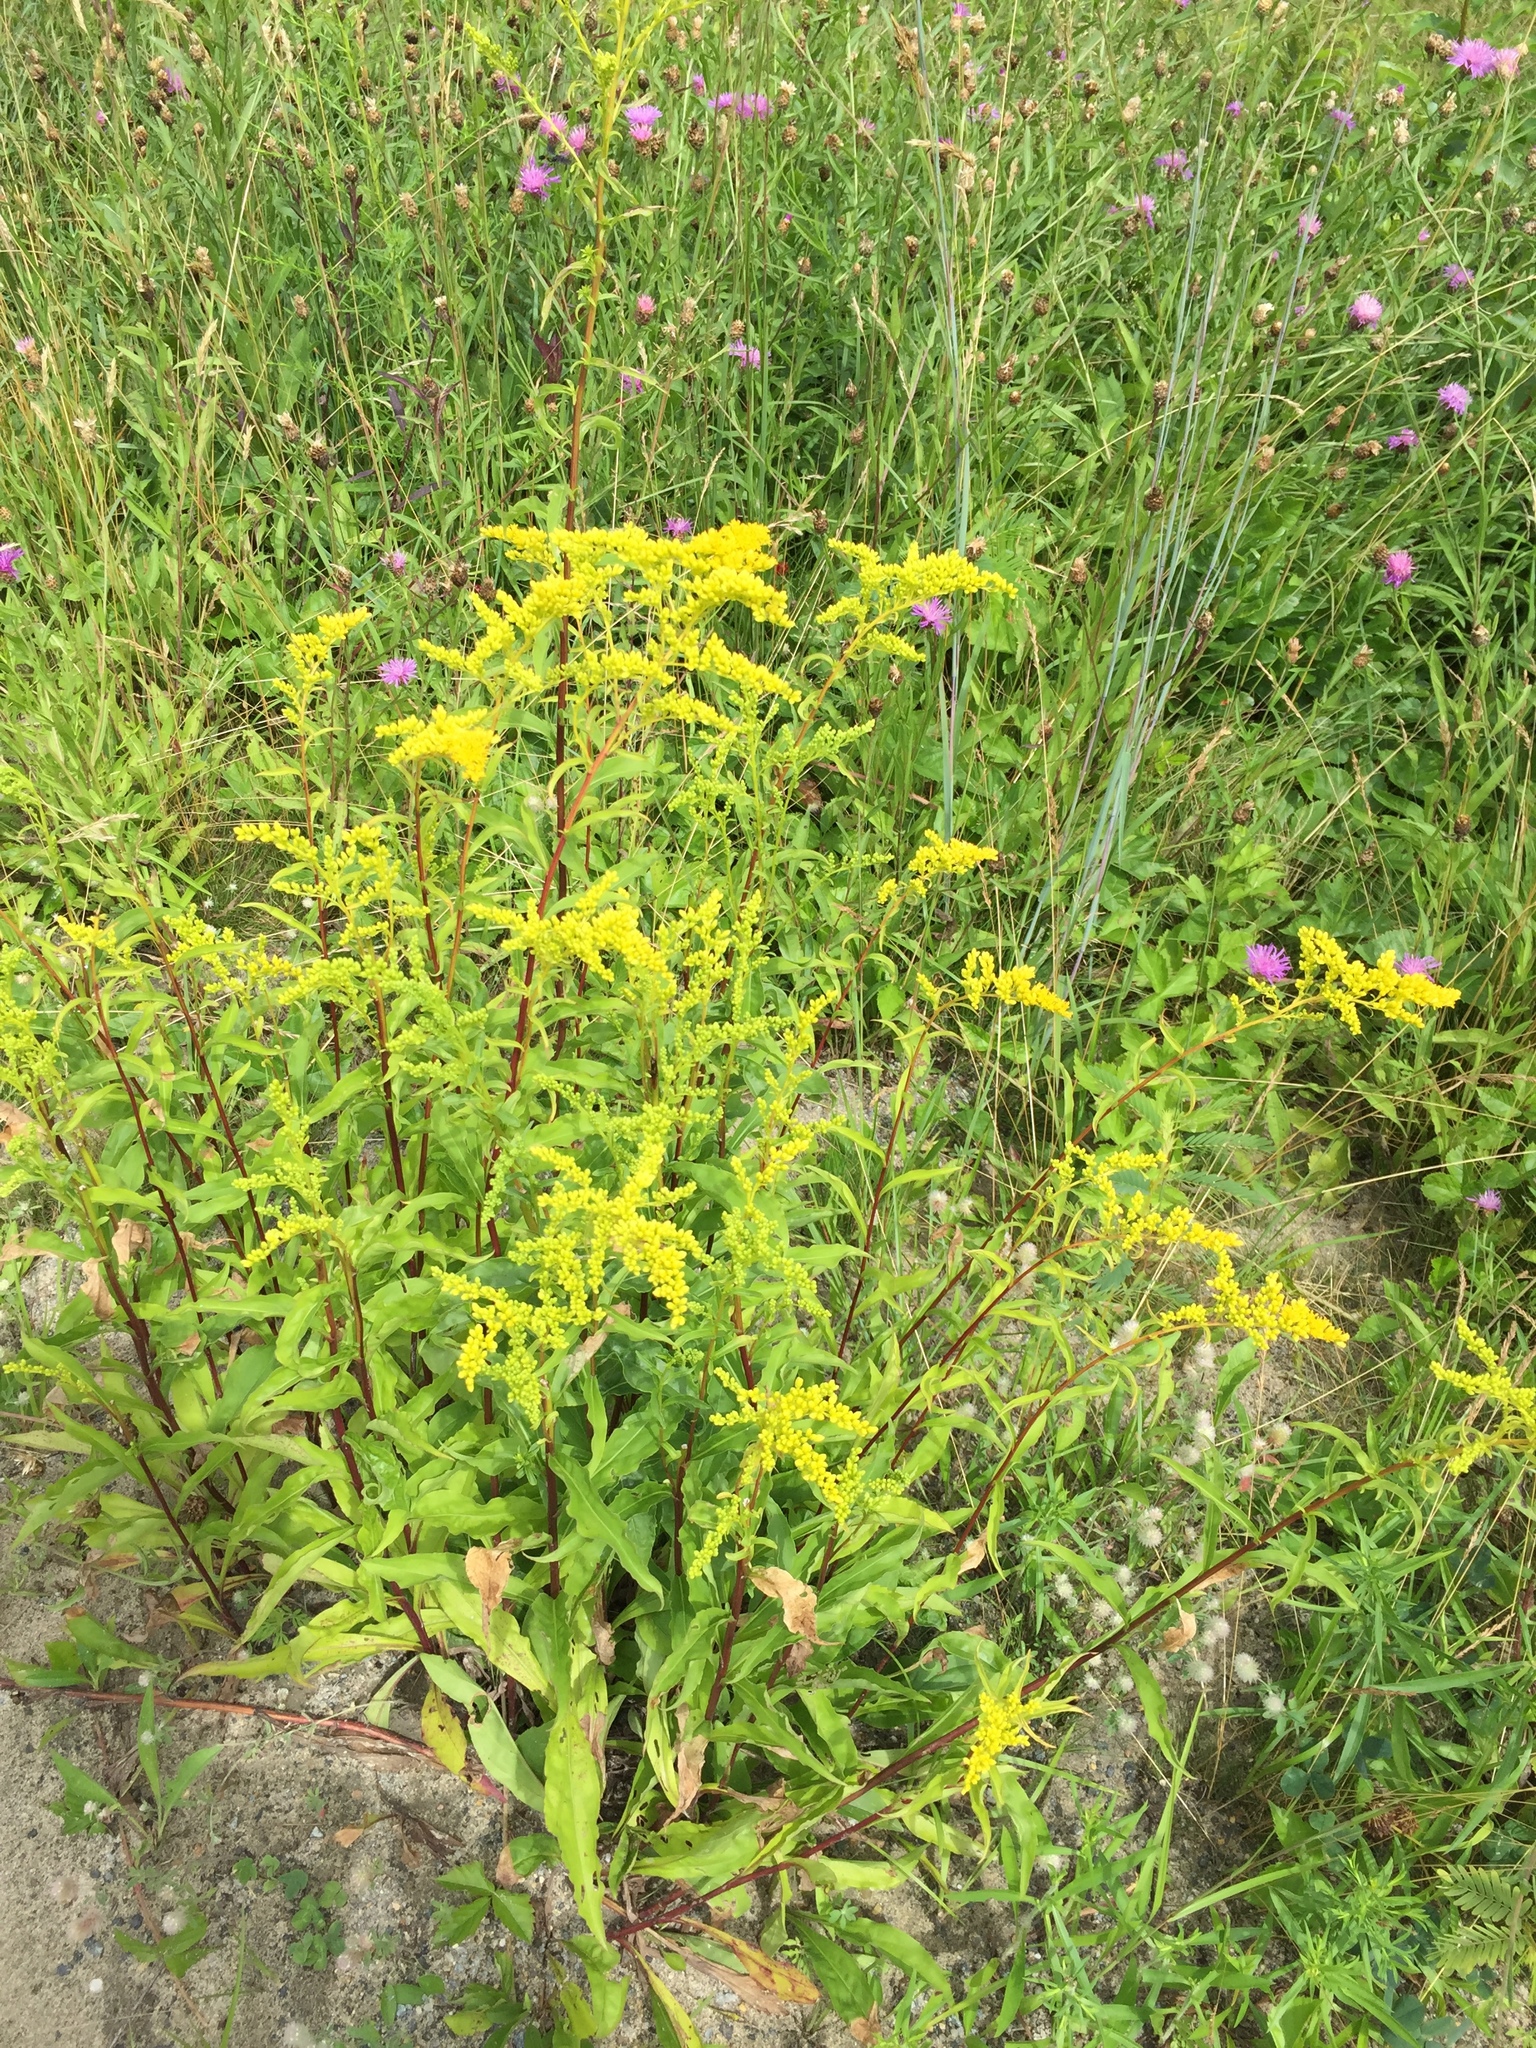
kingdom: Plantae
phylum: Tracheophyta
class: Magnoliopsida
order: Asterales
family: Asteraceae
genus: Solidago
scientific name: Solidago juncea
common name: Early goldenrod
